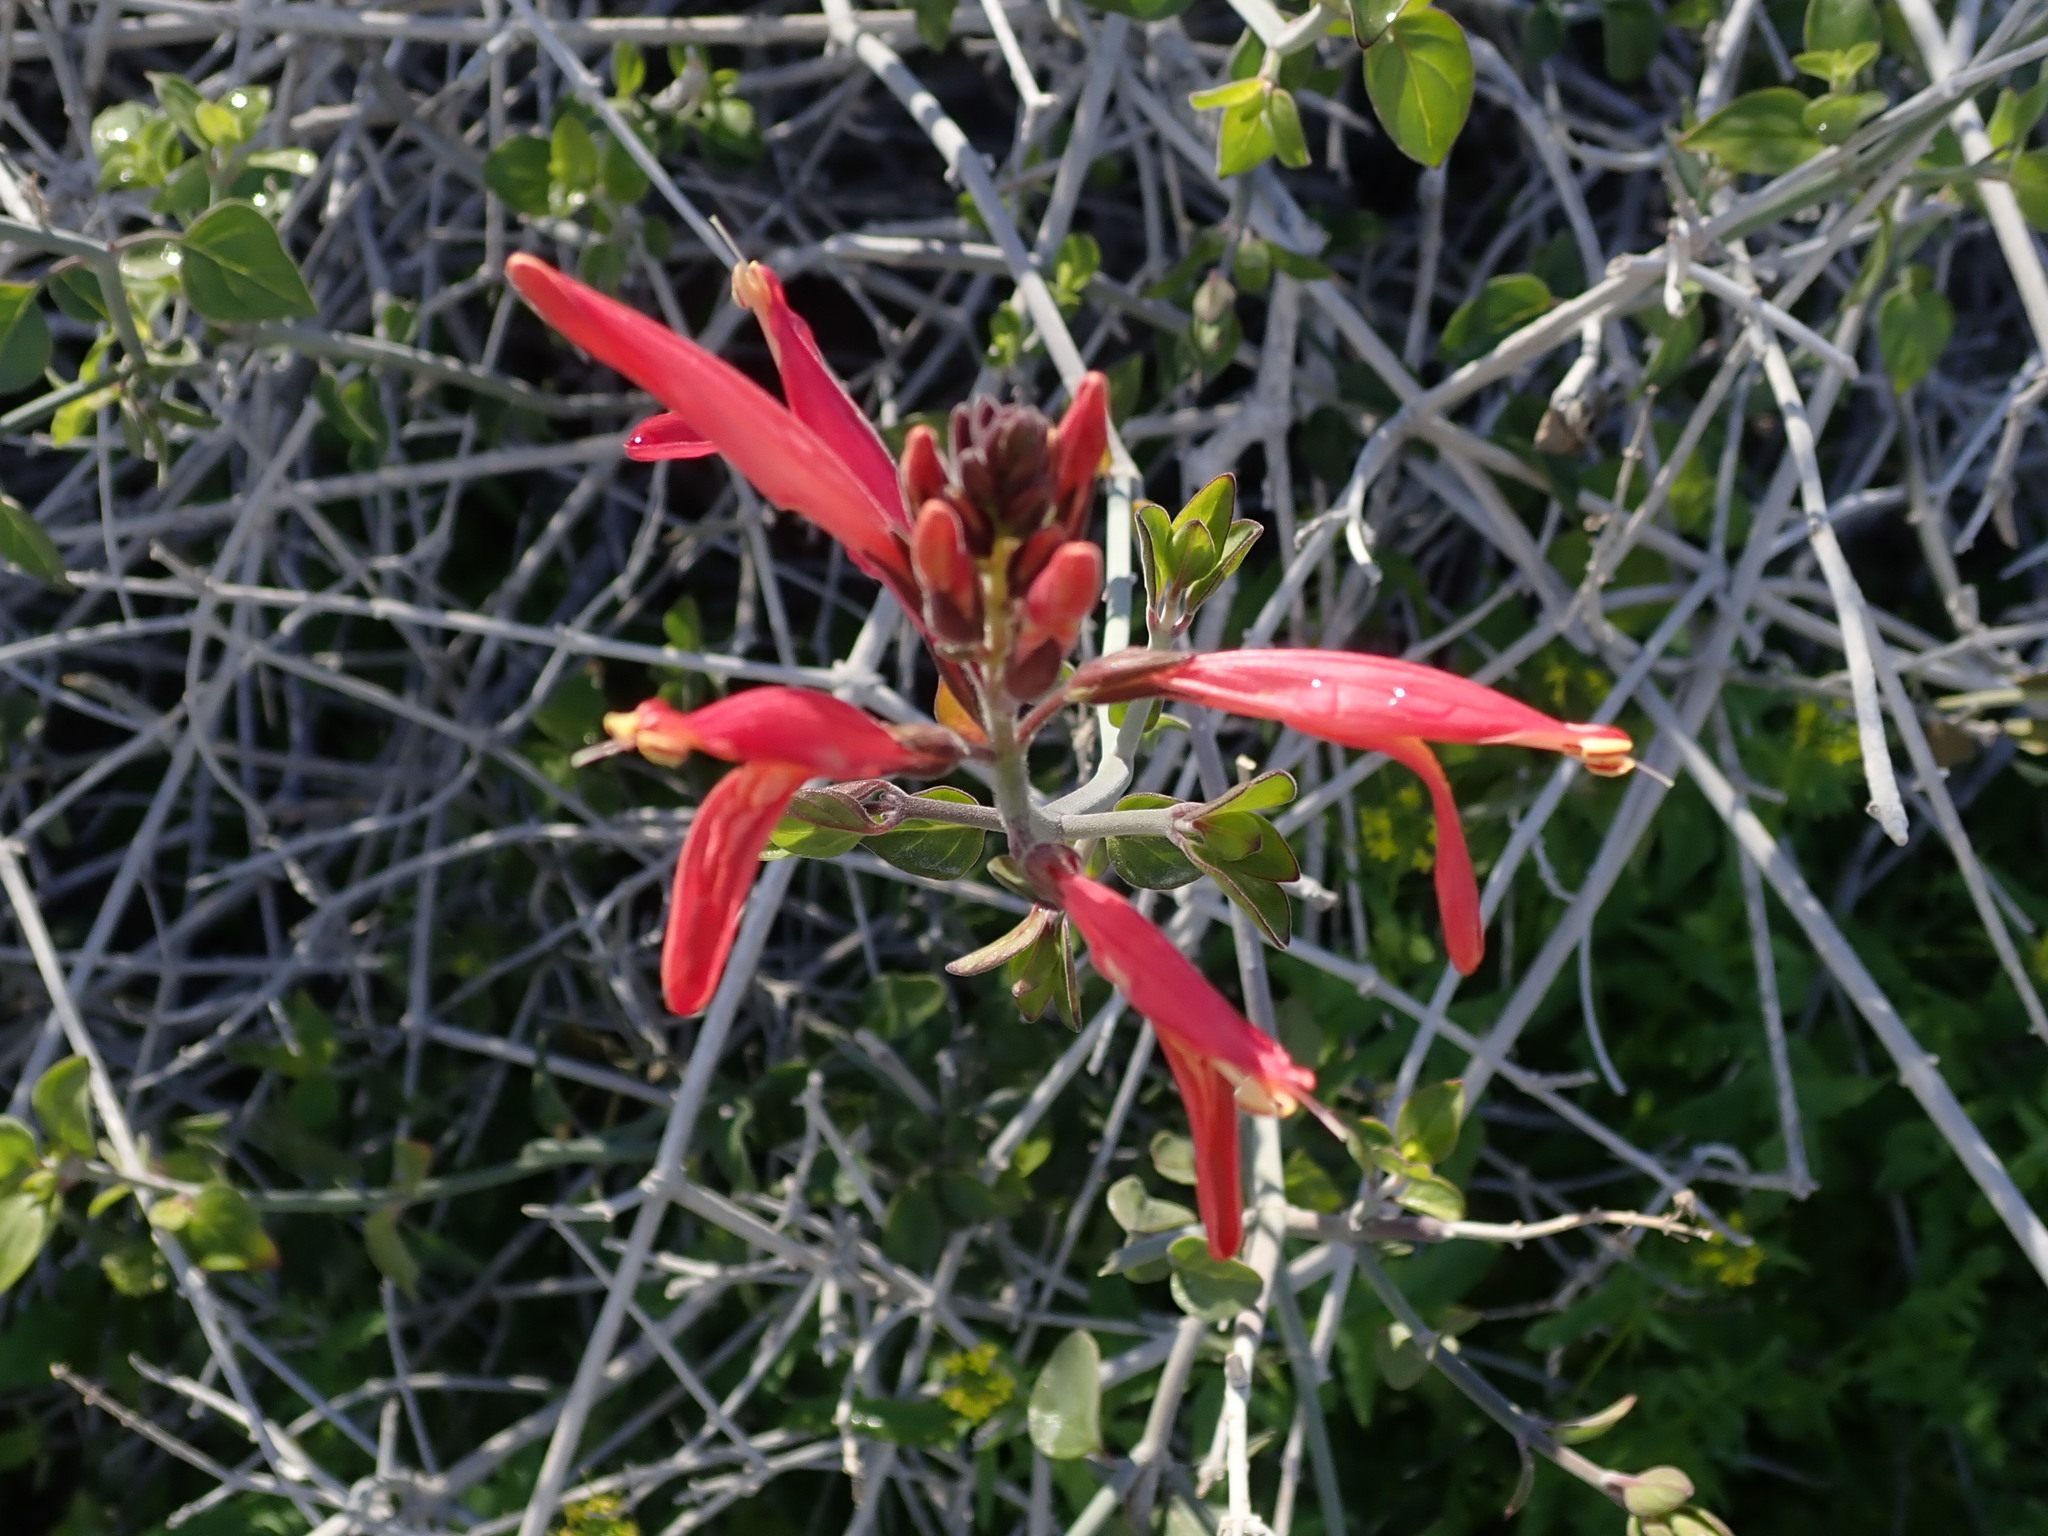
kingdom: Plantae
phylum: Tracheophyta
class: Magnoliopsida
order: Lamiales
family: Acanthaceae
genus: Justicia
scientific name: Justicia californica
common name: Chuparosa-honeysuckle
